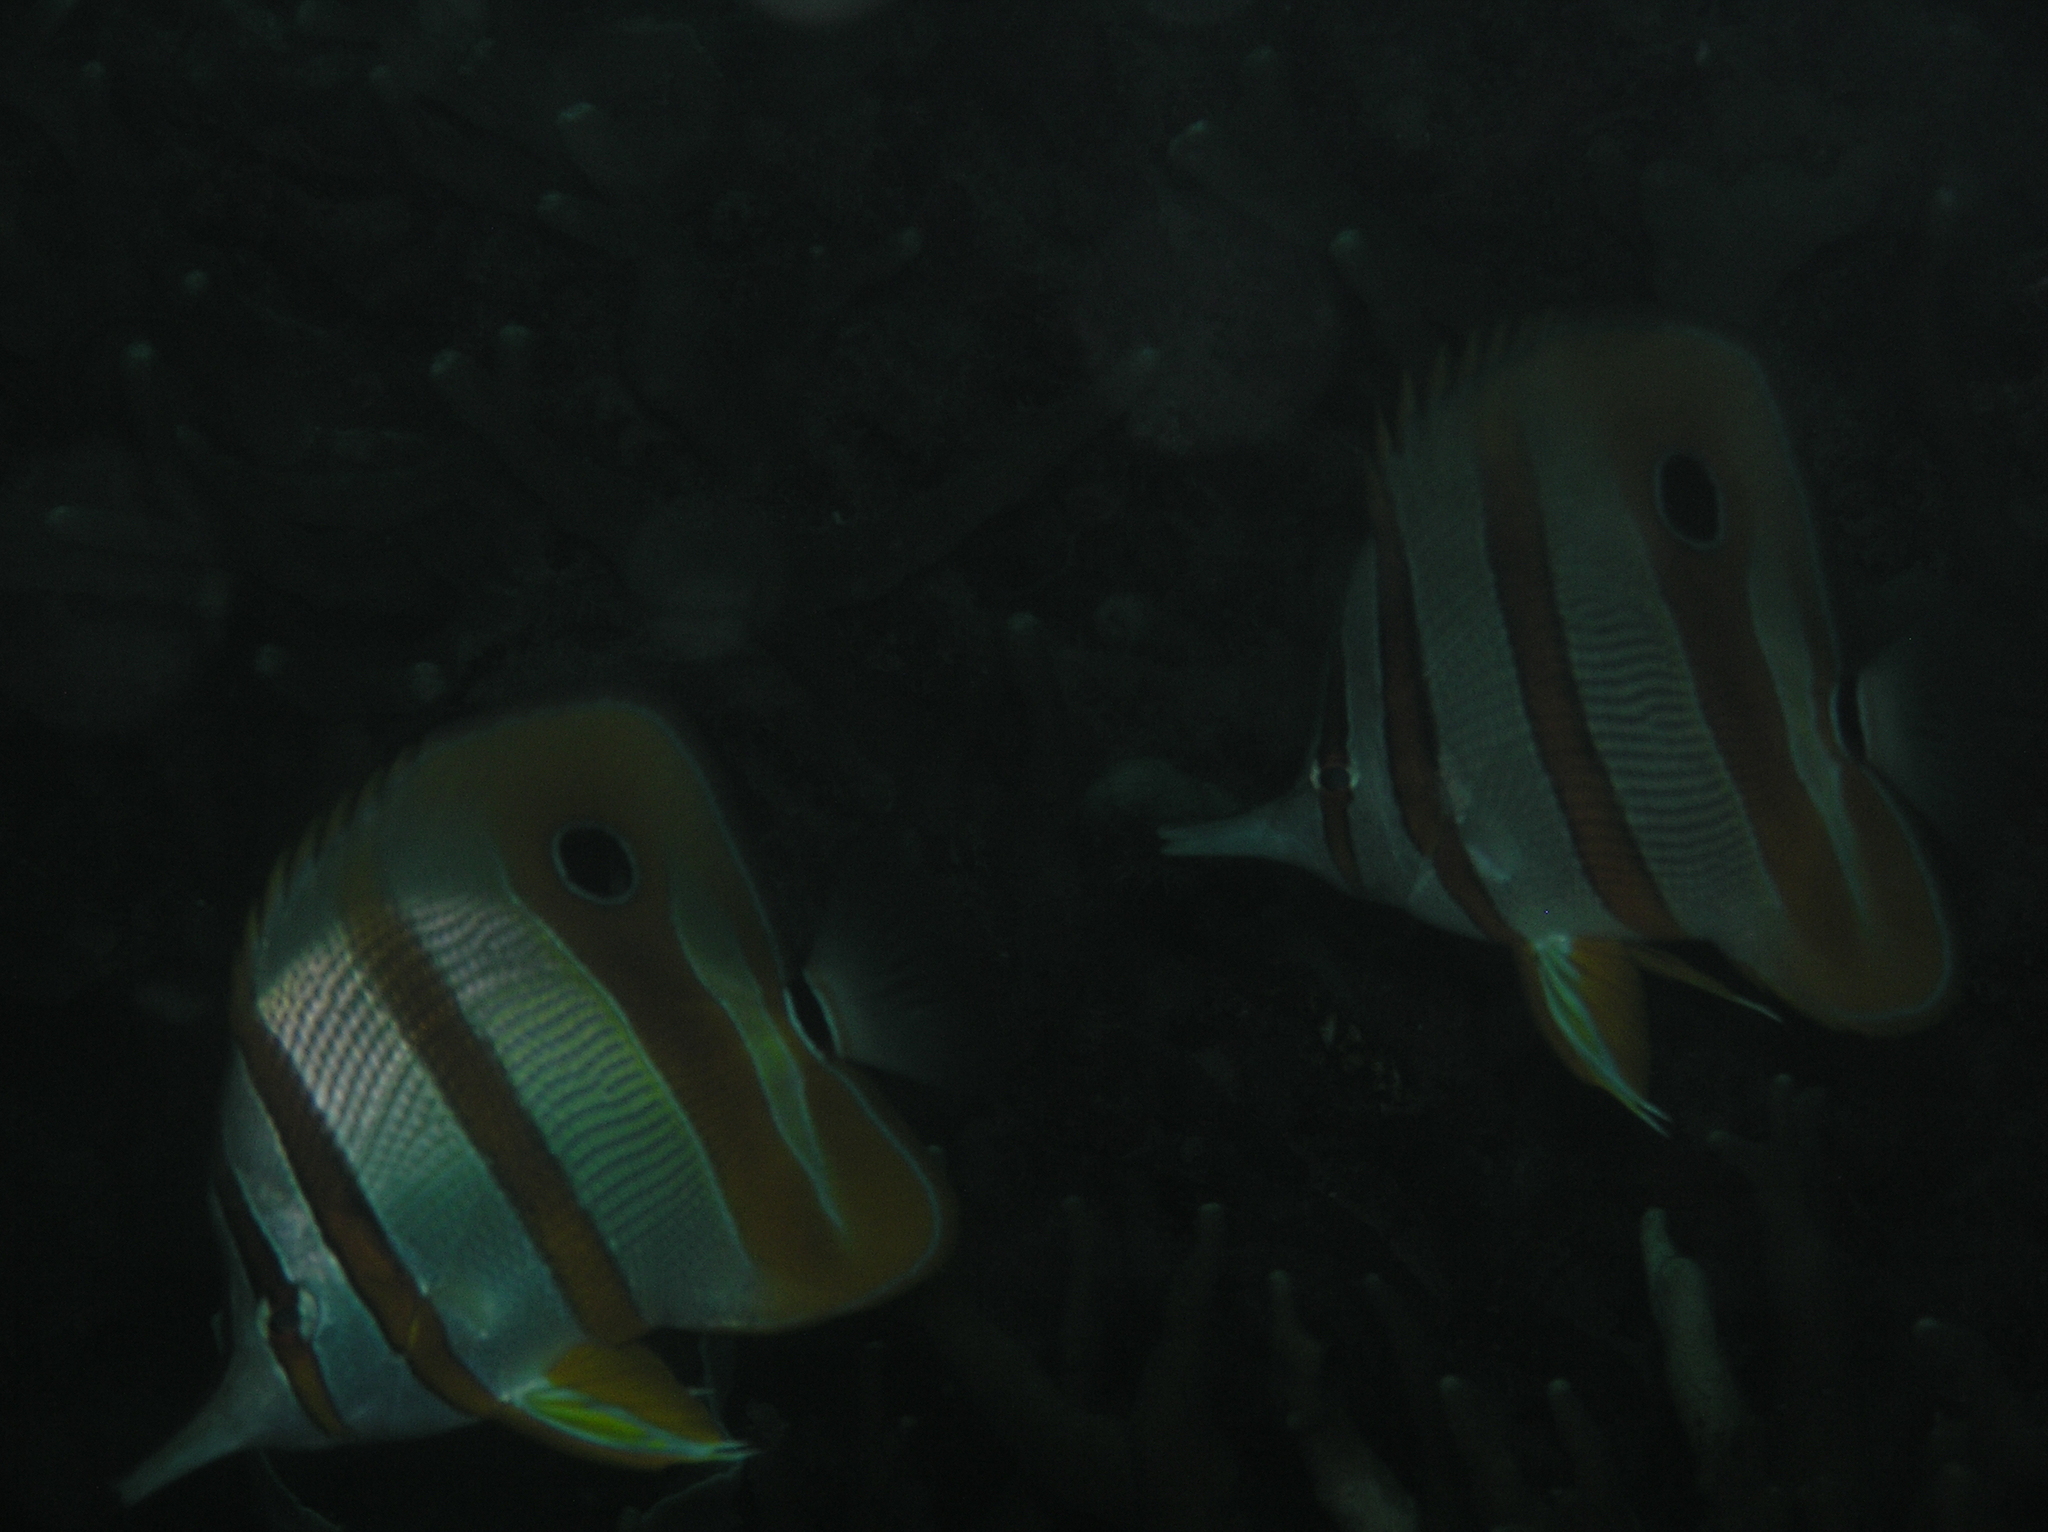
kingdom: Animalia
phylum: Chordata
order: Perciformes
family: Chaetodontidae
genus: Chelmon
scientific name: Chelmon rostratus
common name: Beaked butterflyfish
